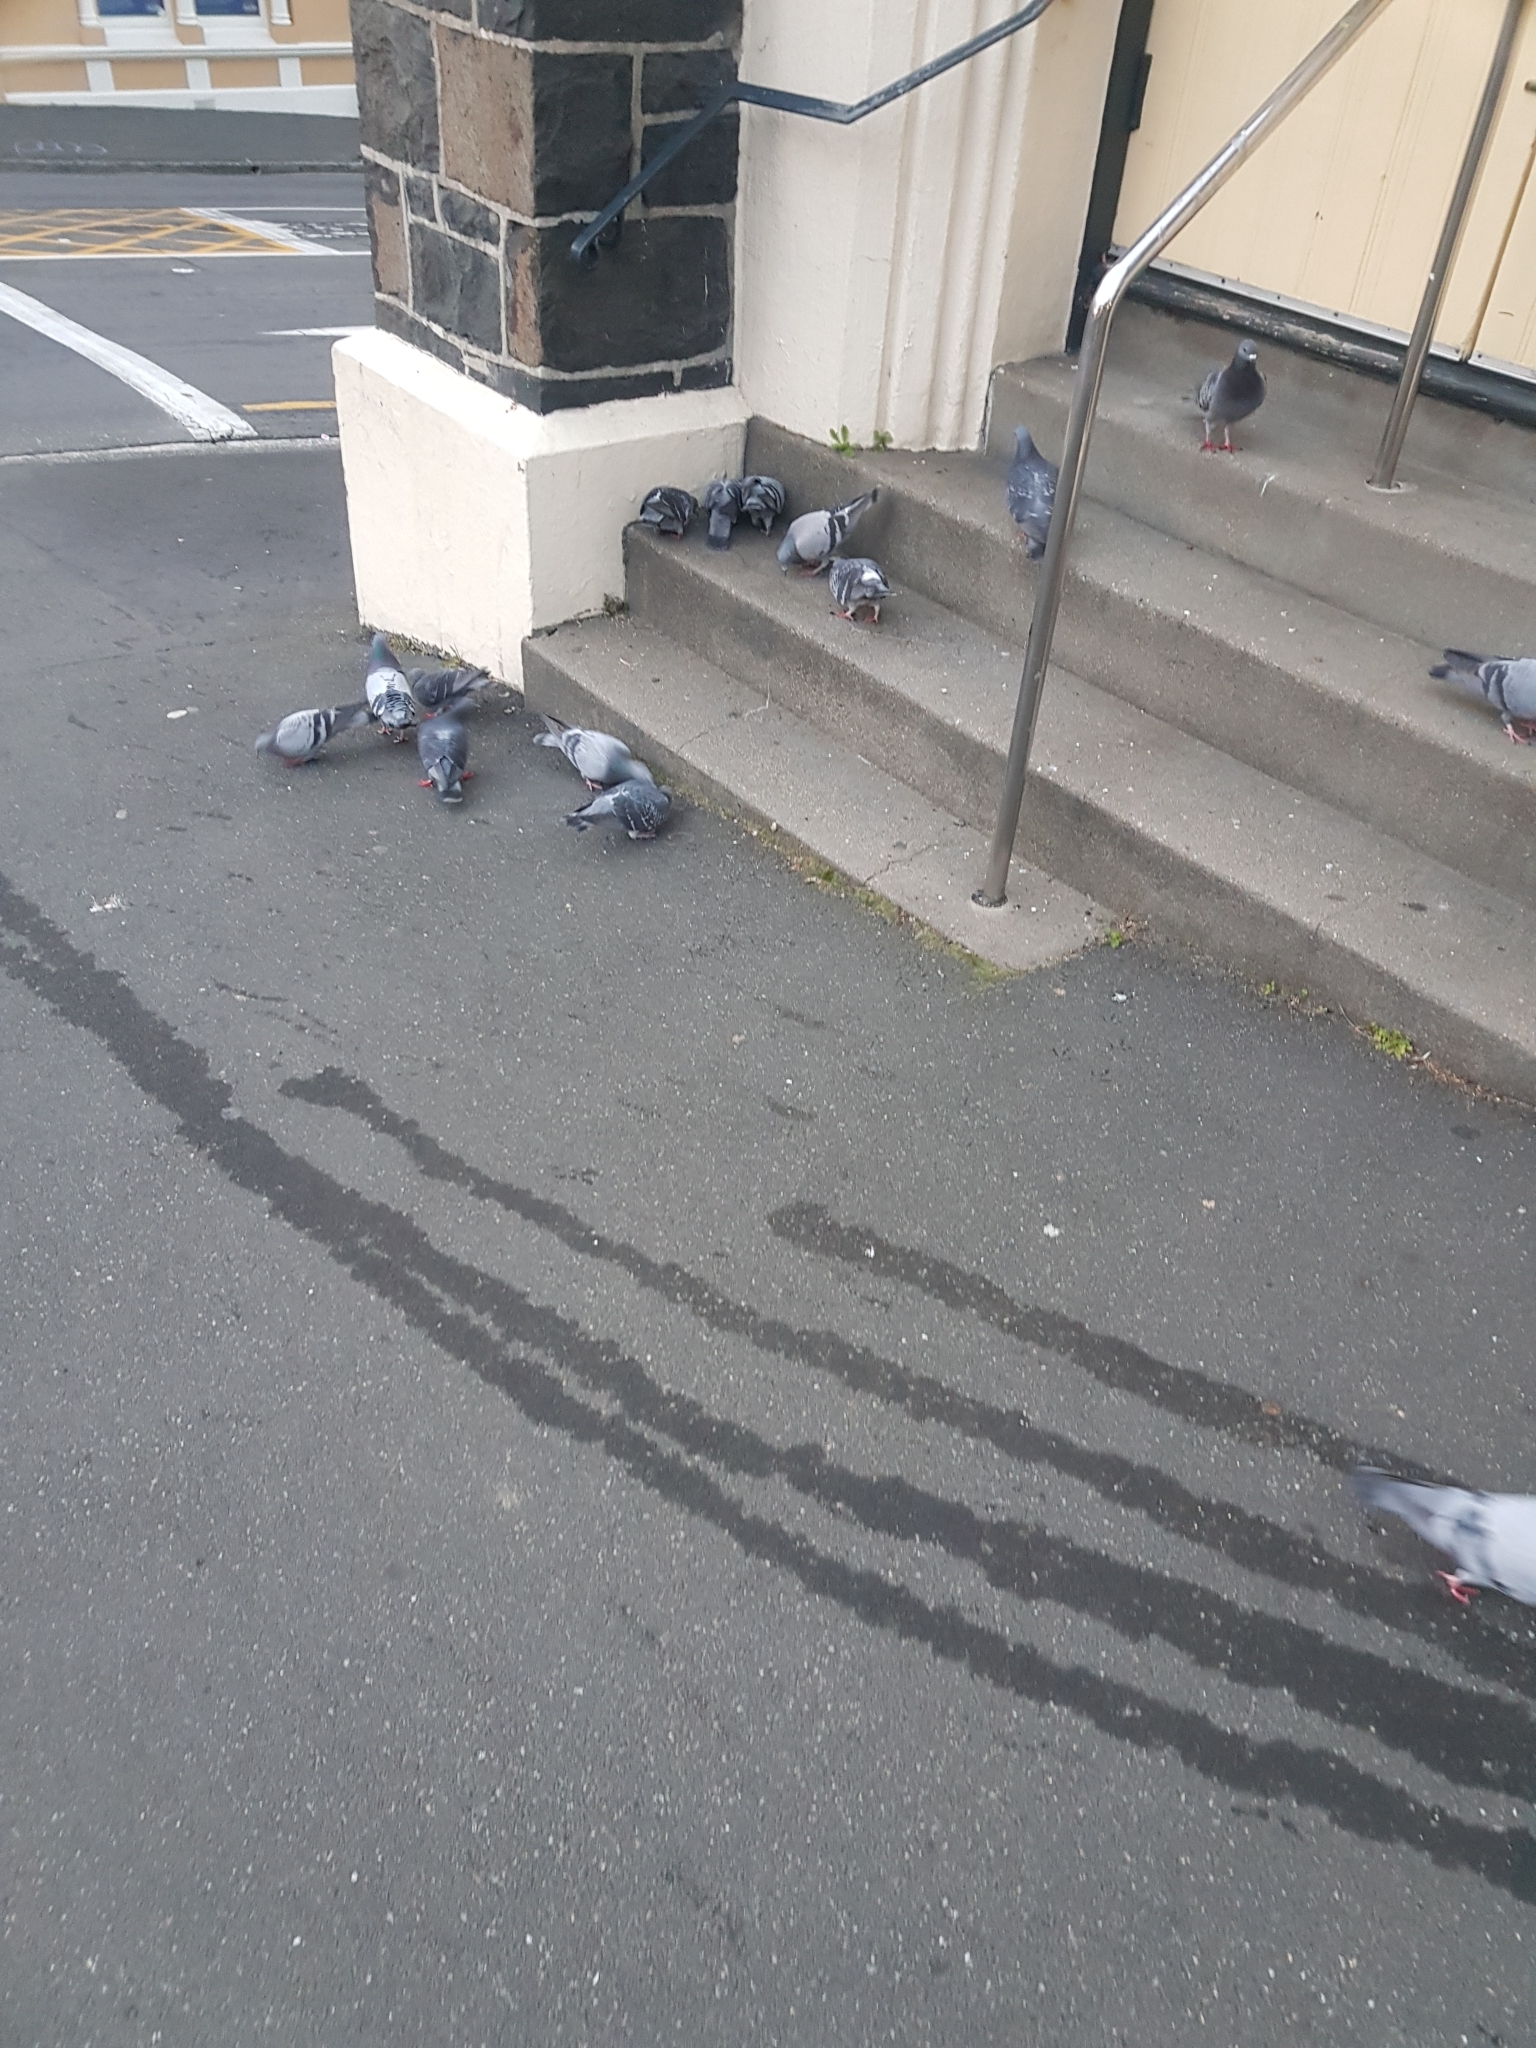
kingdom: Animalia
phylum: Chordata
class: Aves
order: Columbiformes
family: Columbidae
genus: Columba
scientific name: Columba livia
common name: Rock pigeon
